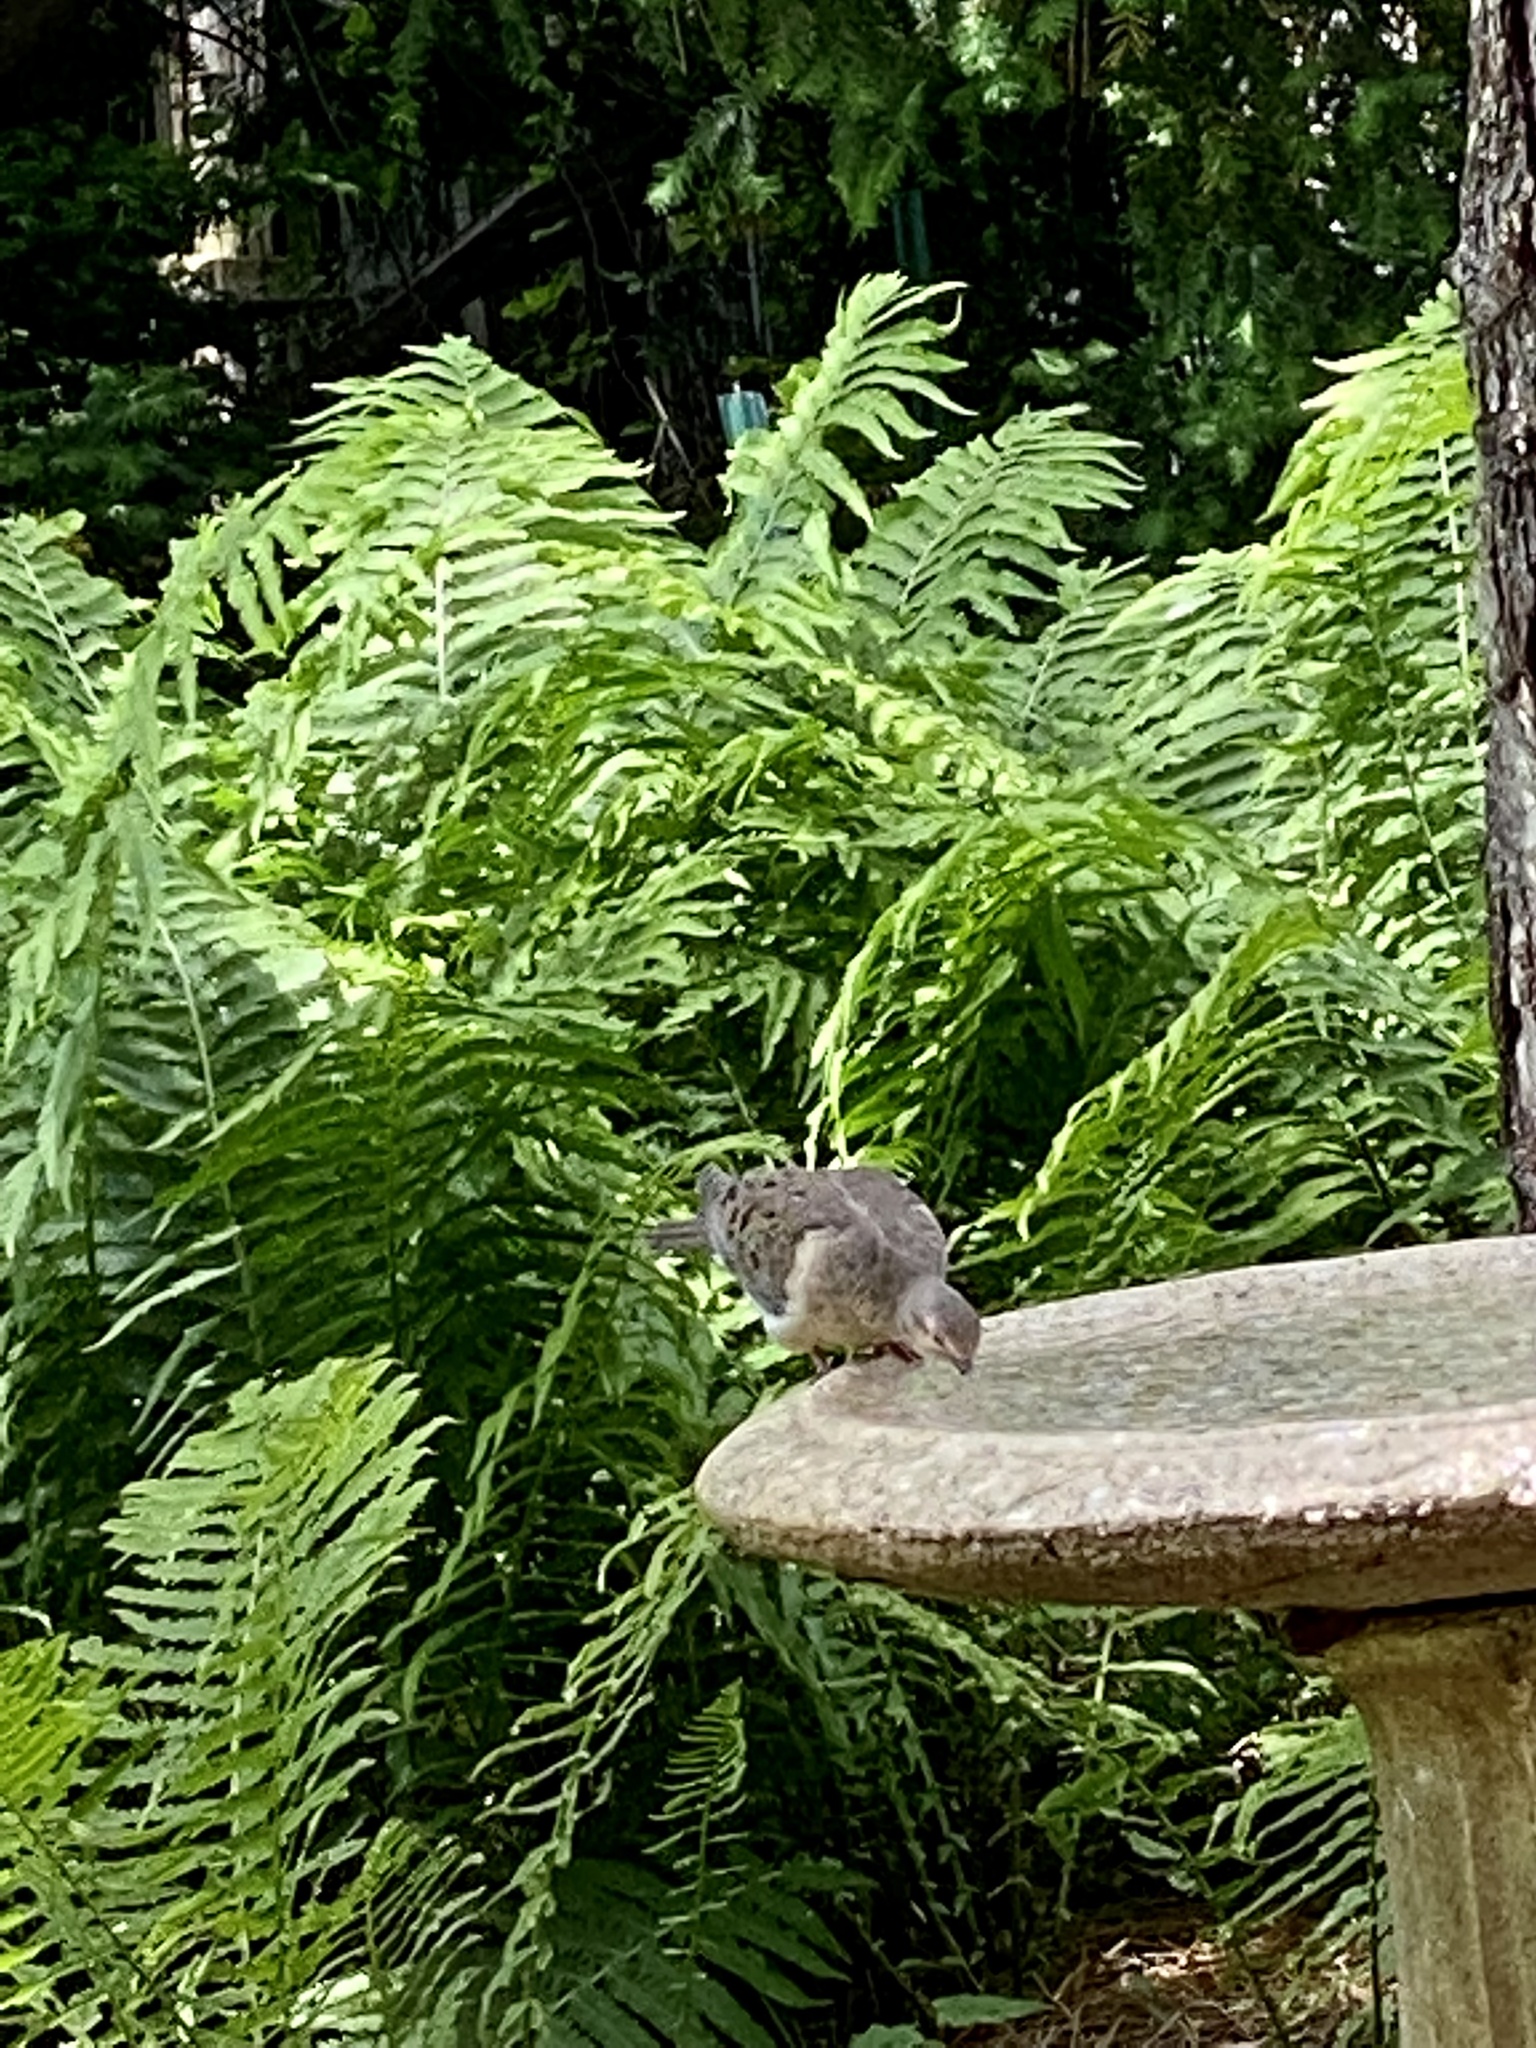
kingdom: Animalia
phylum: Chordata
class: Aves
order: Columbiformes
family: Columbidae
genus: Zenaida
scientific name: Zenaida macroura
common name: Mourning dove
